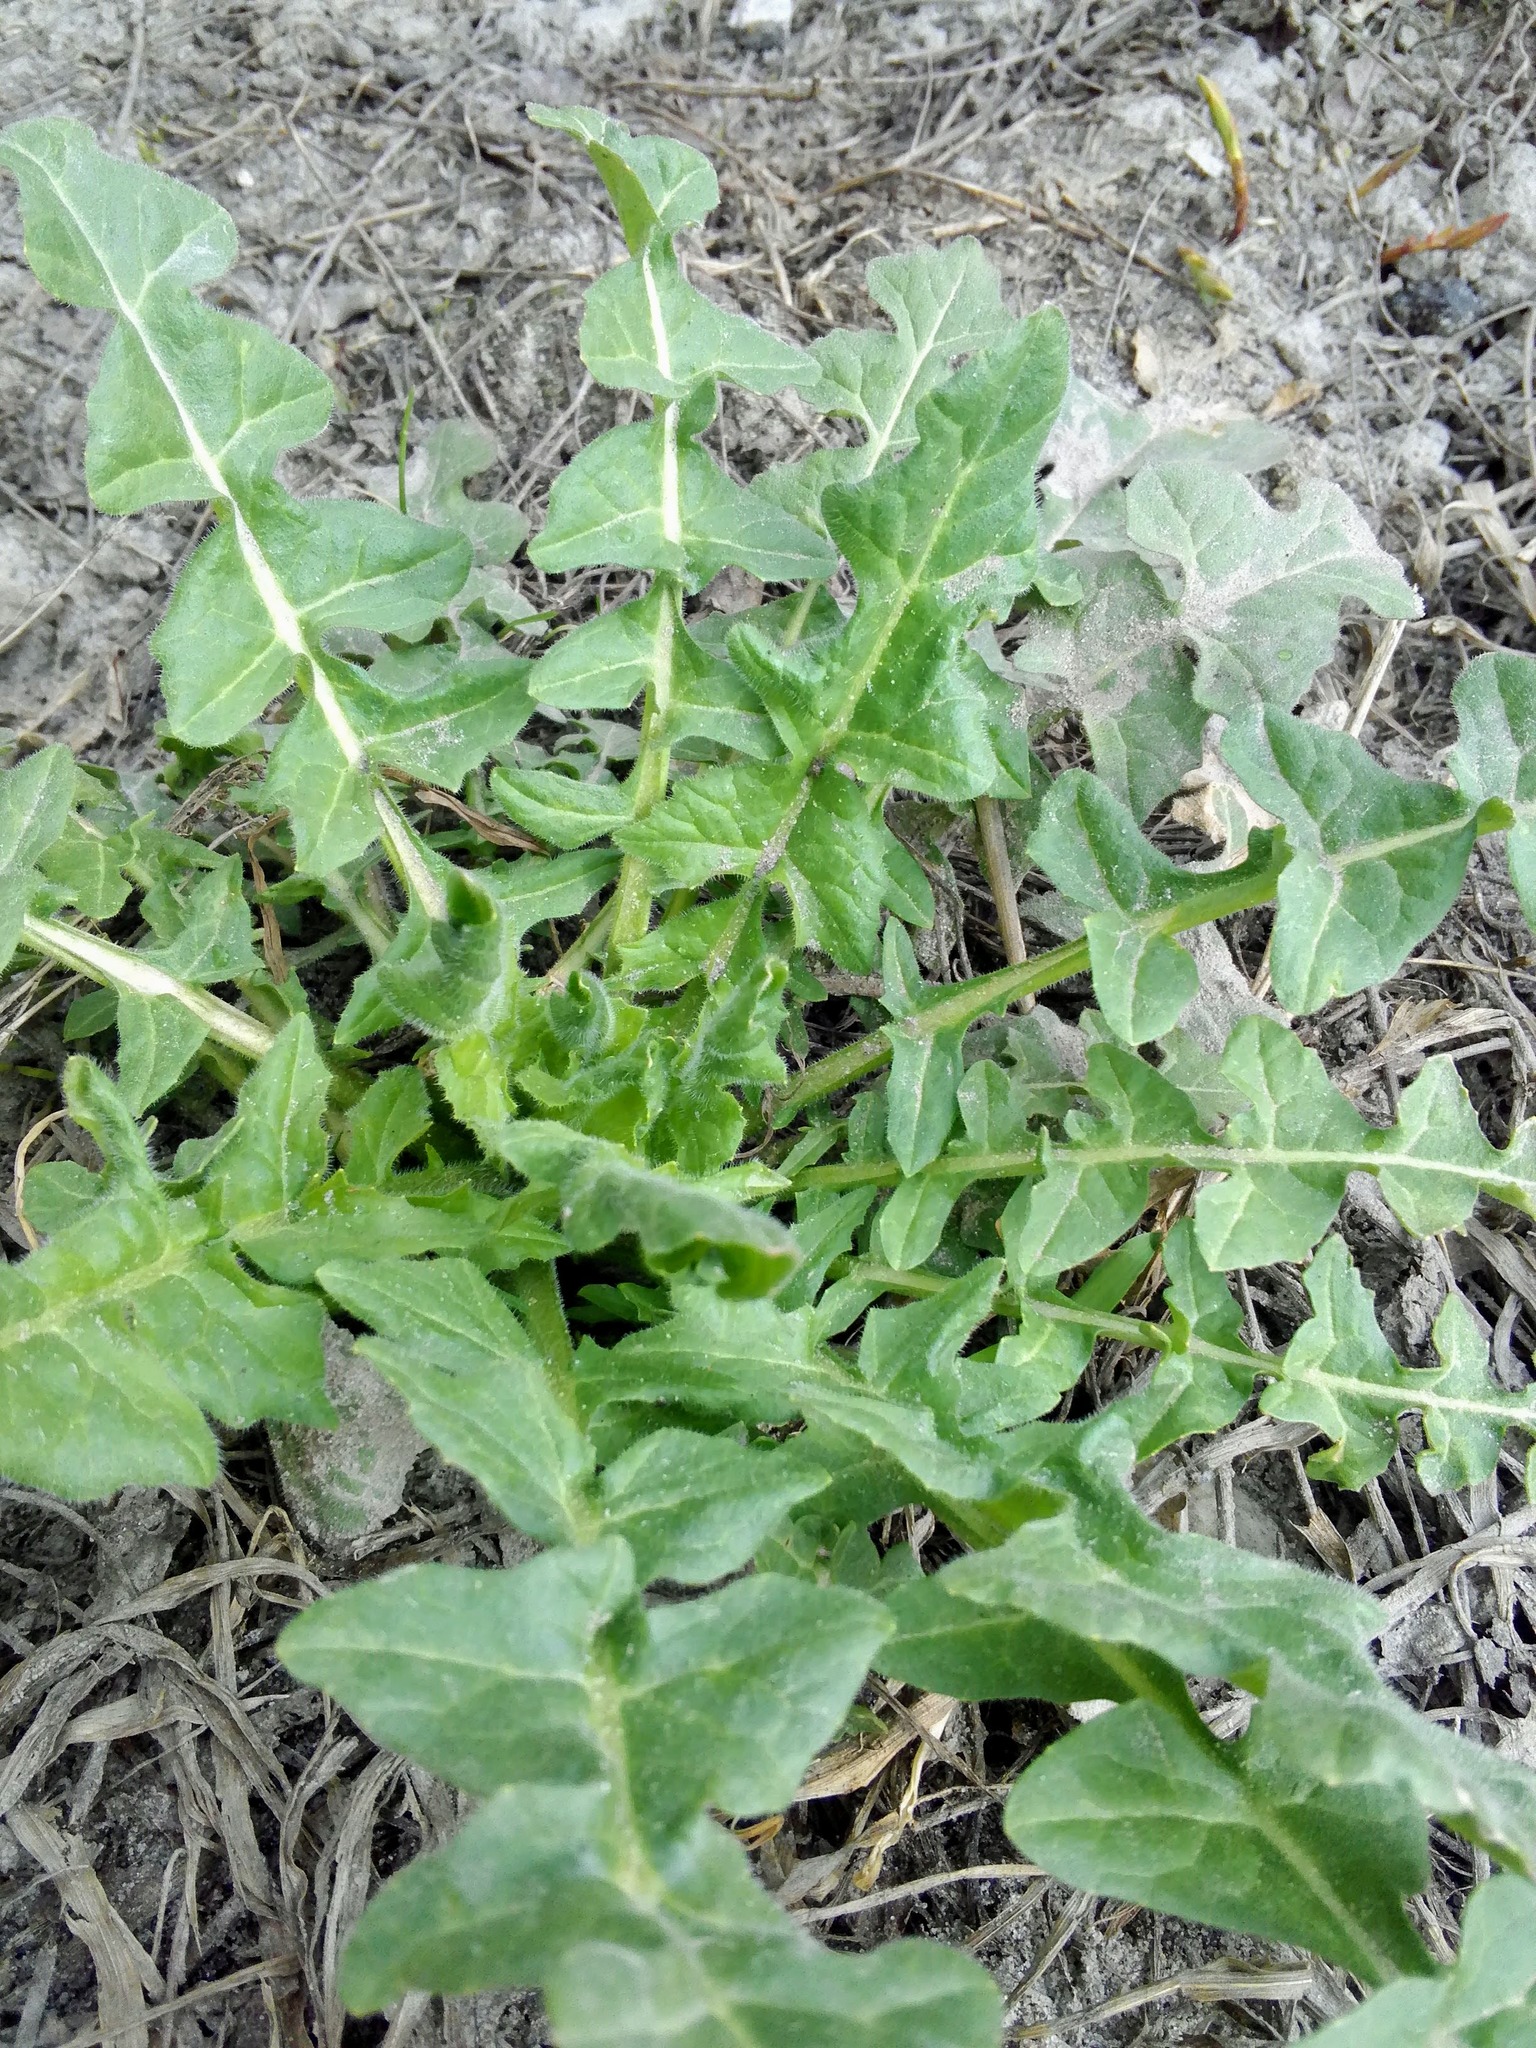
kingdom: Plantae
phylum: Tracheophyta
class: Magnoliopsida
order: Brassicales
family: Brassicaceae
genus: Sisymbrium
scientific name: Sisymbrium loeselii
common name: False london-rocket
